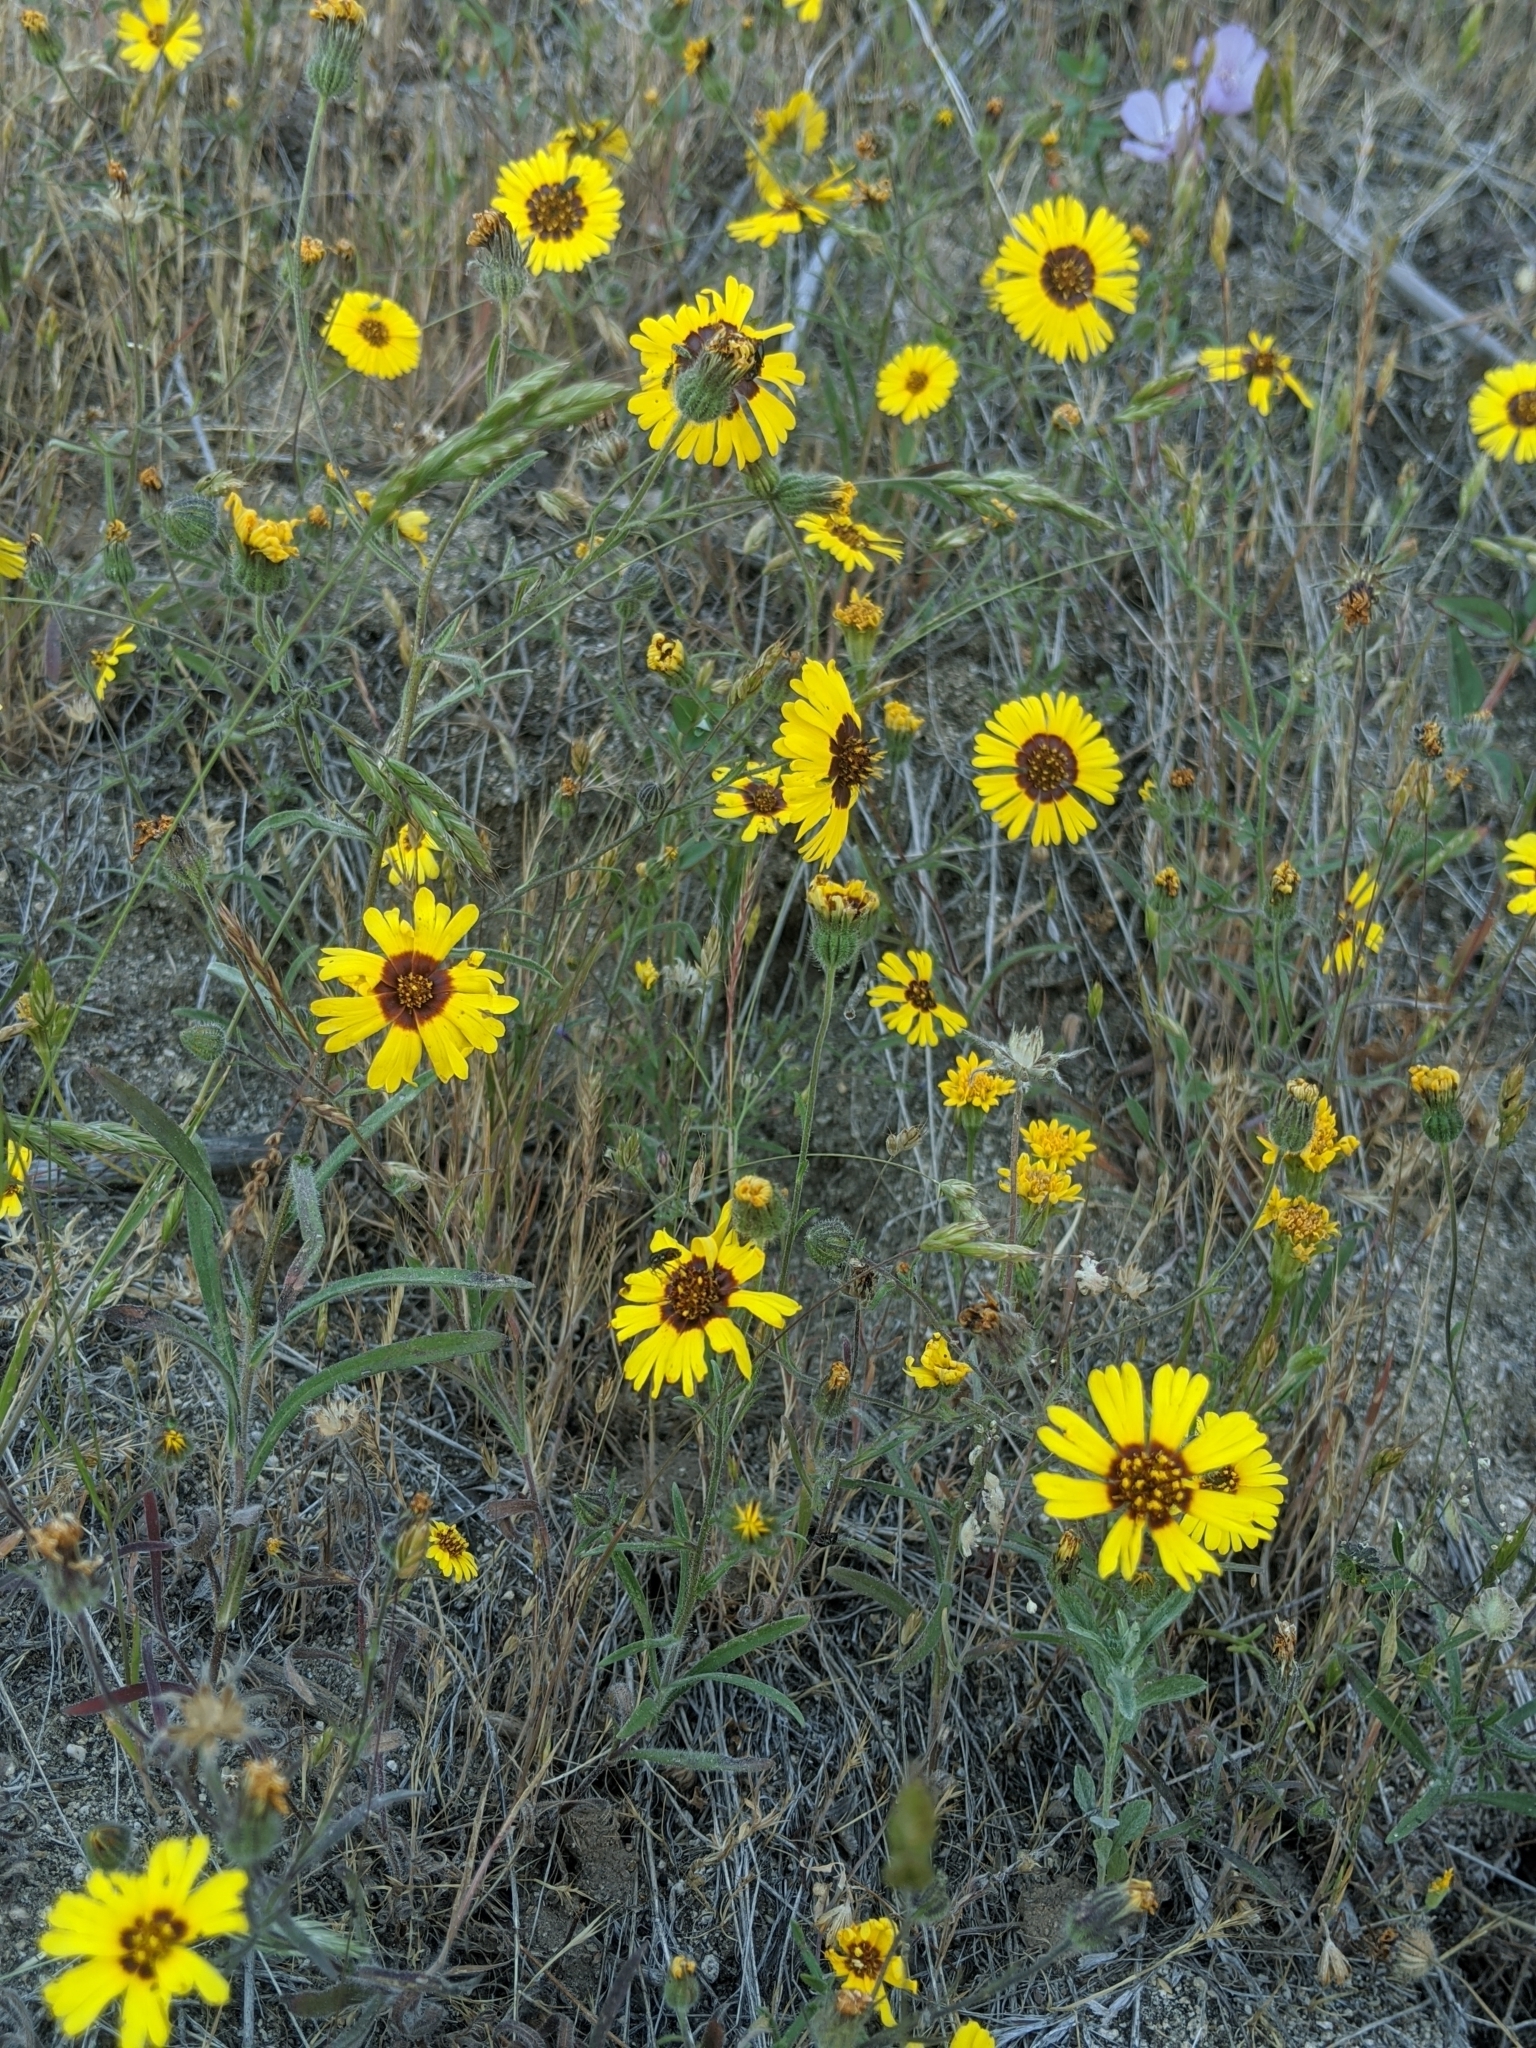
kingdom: Plantae
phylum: Tracheophyta
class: Magnoliopsida
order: Asterales
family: Asteraceae
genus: Madia
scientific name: Madia elegans
